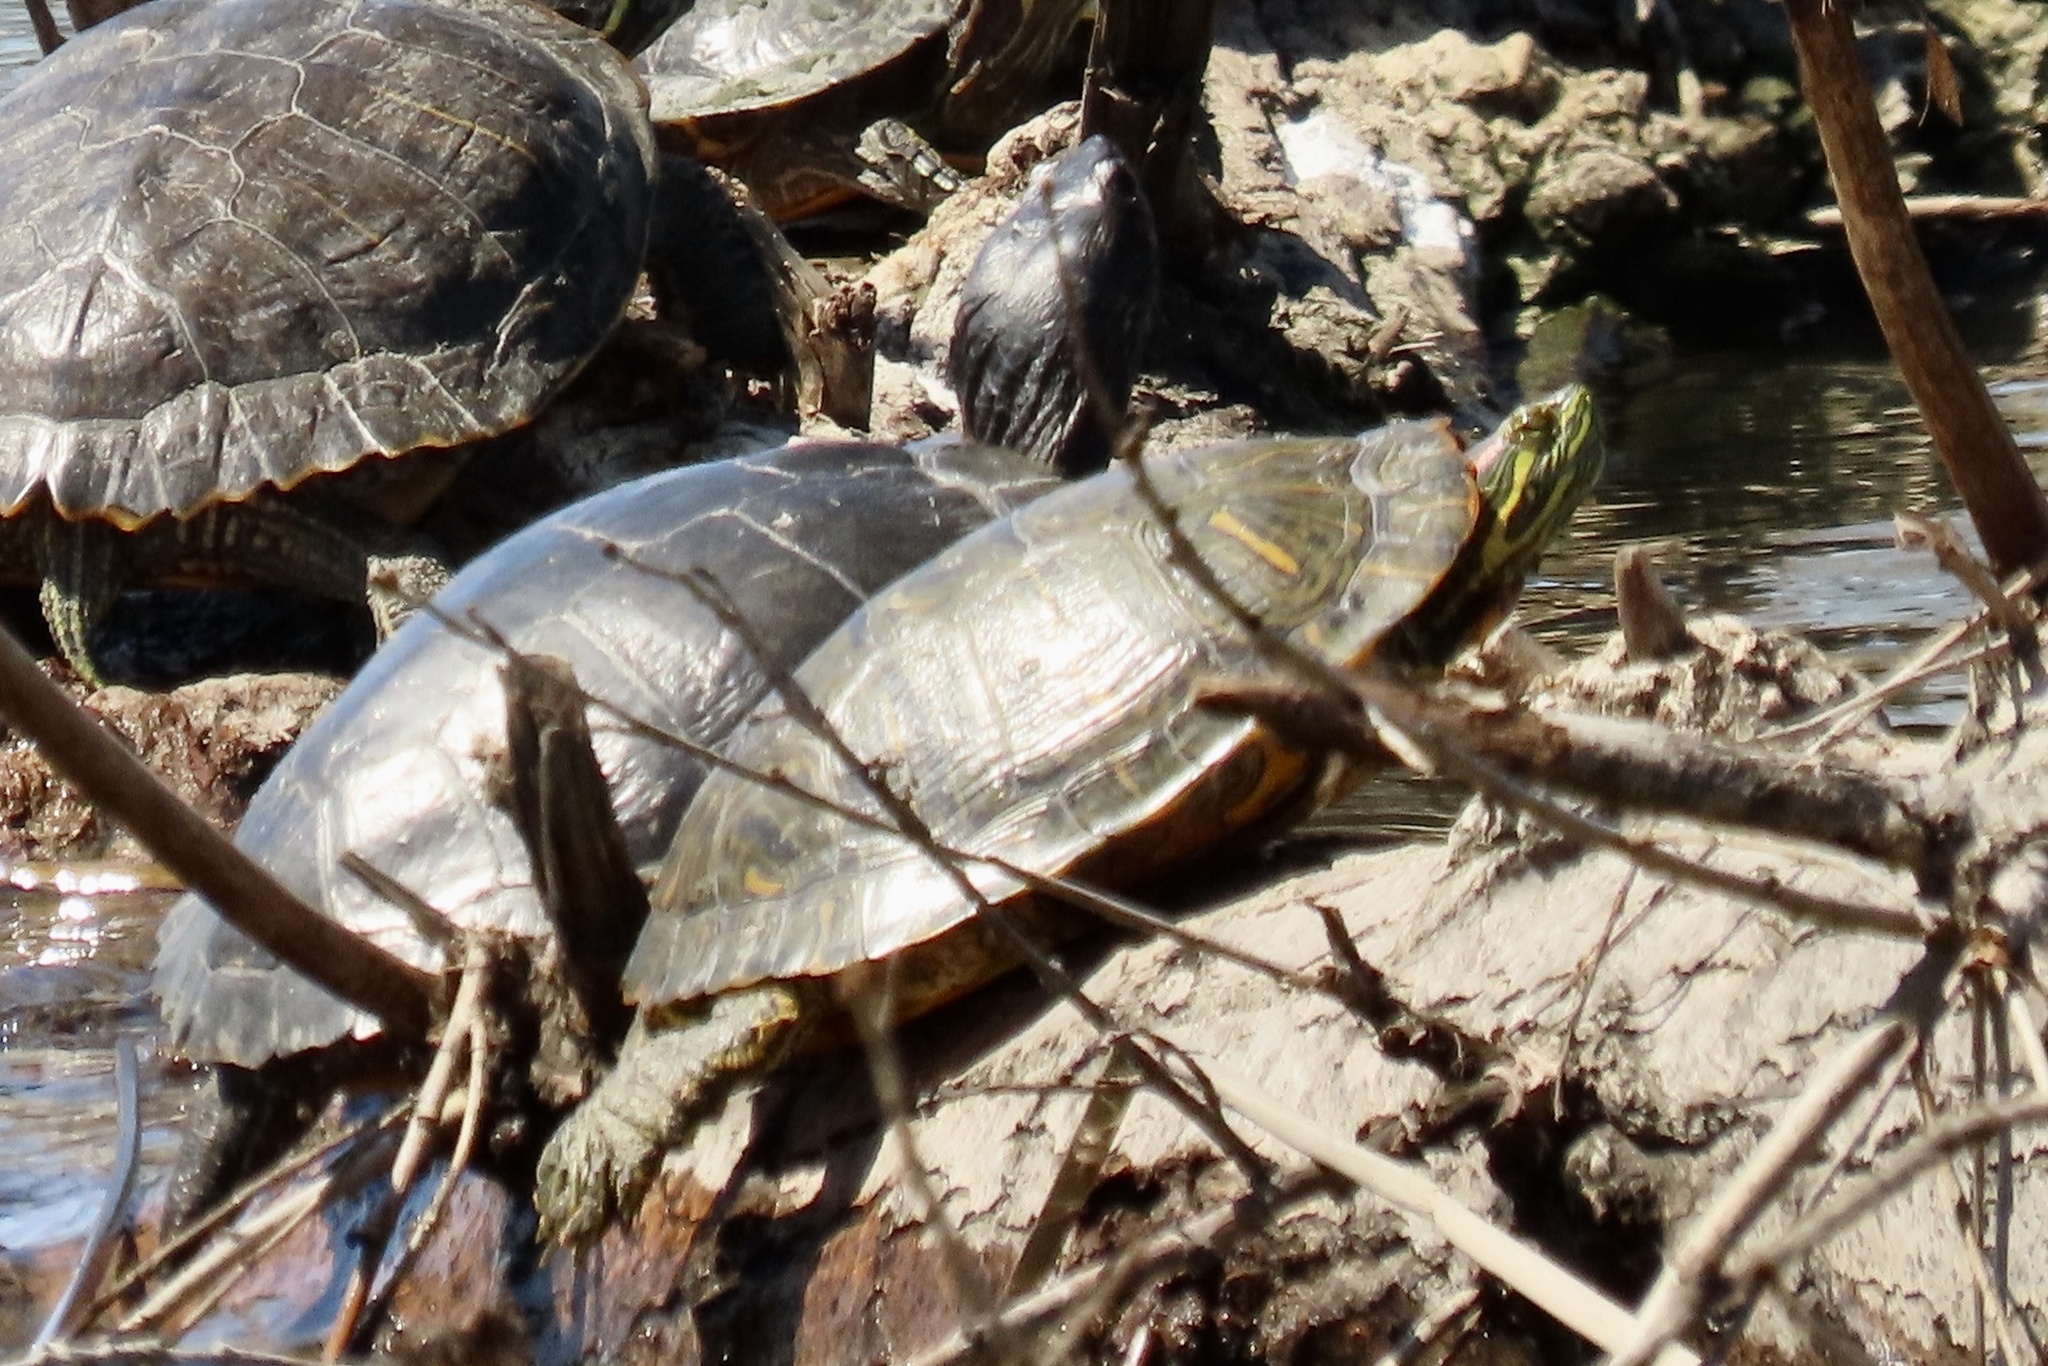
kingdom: Animalia
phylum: Chordata
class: Testudines
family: Emydidae
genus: Trachemys
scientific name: Trachemys scripta
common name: Slider
